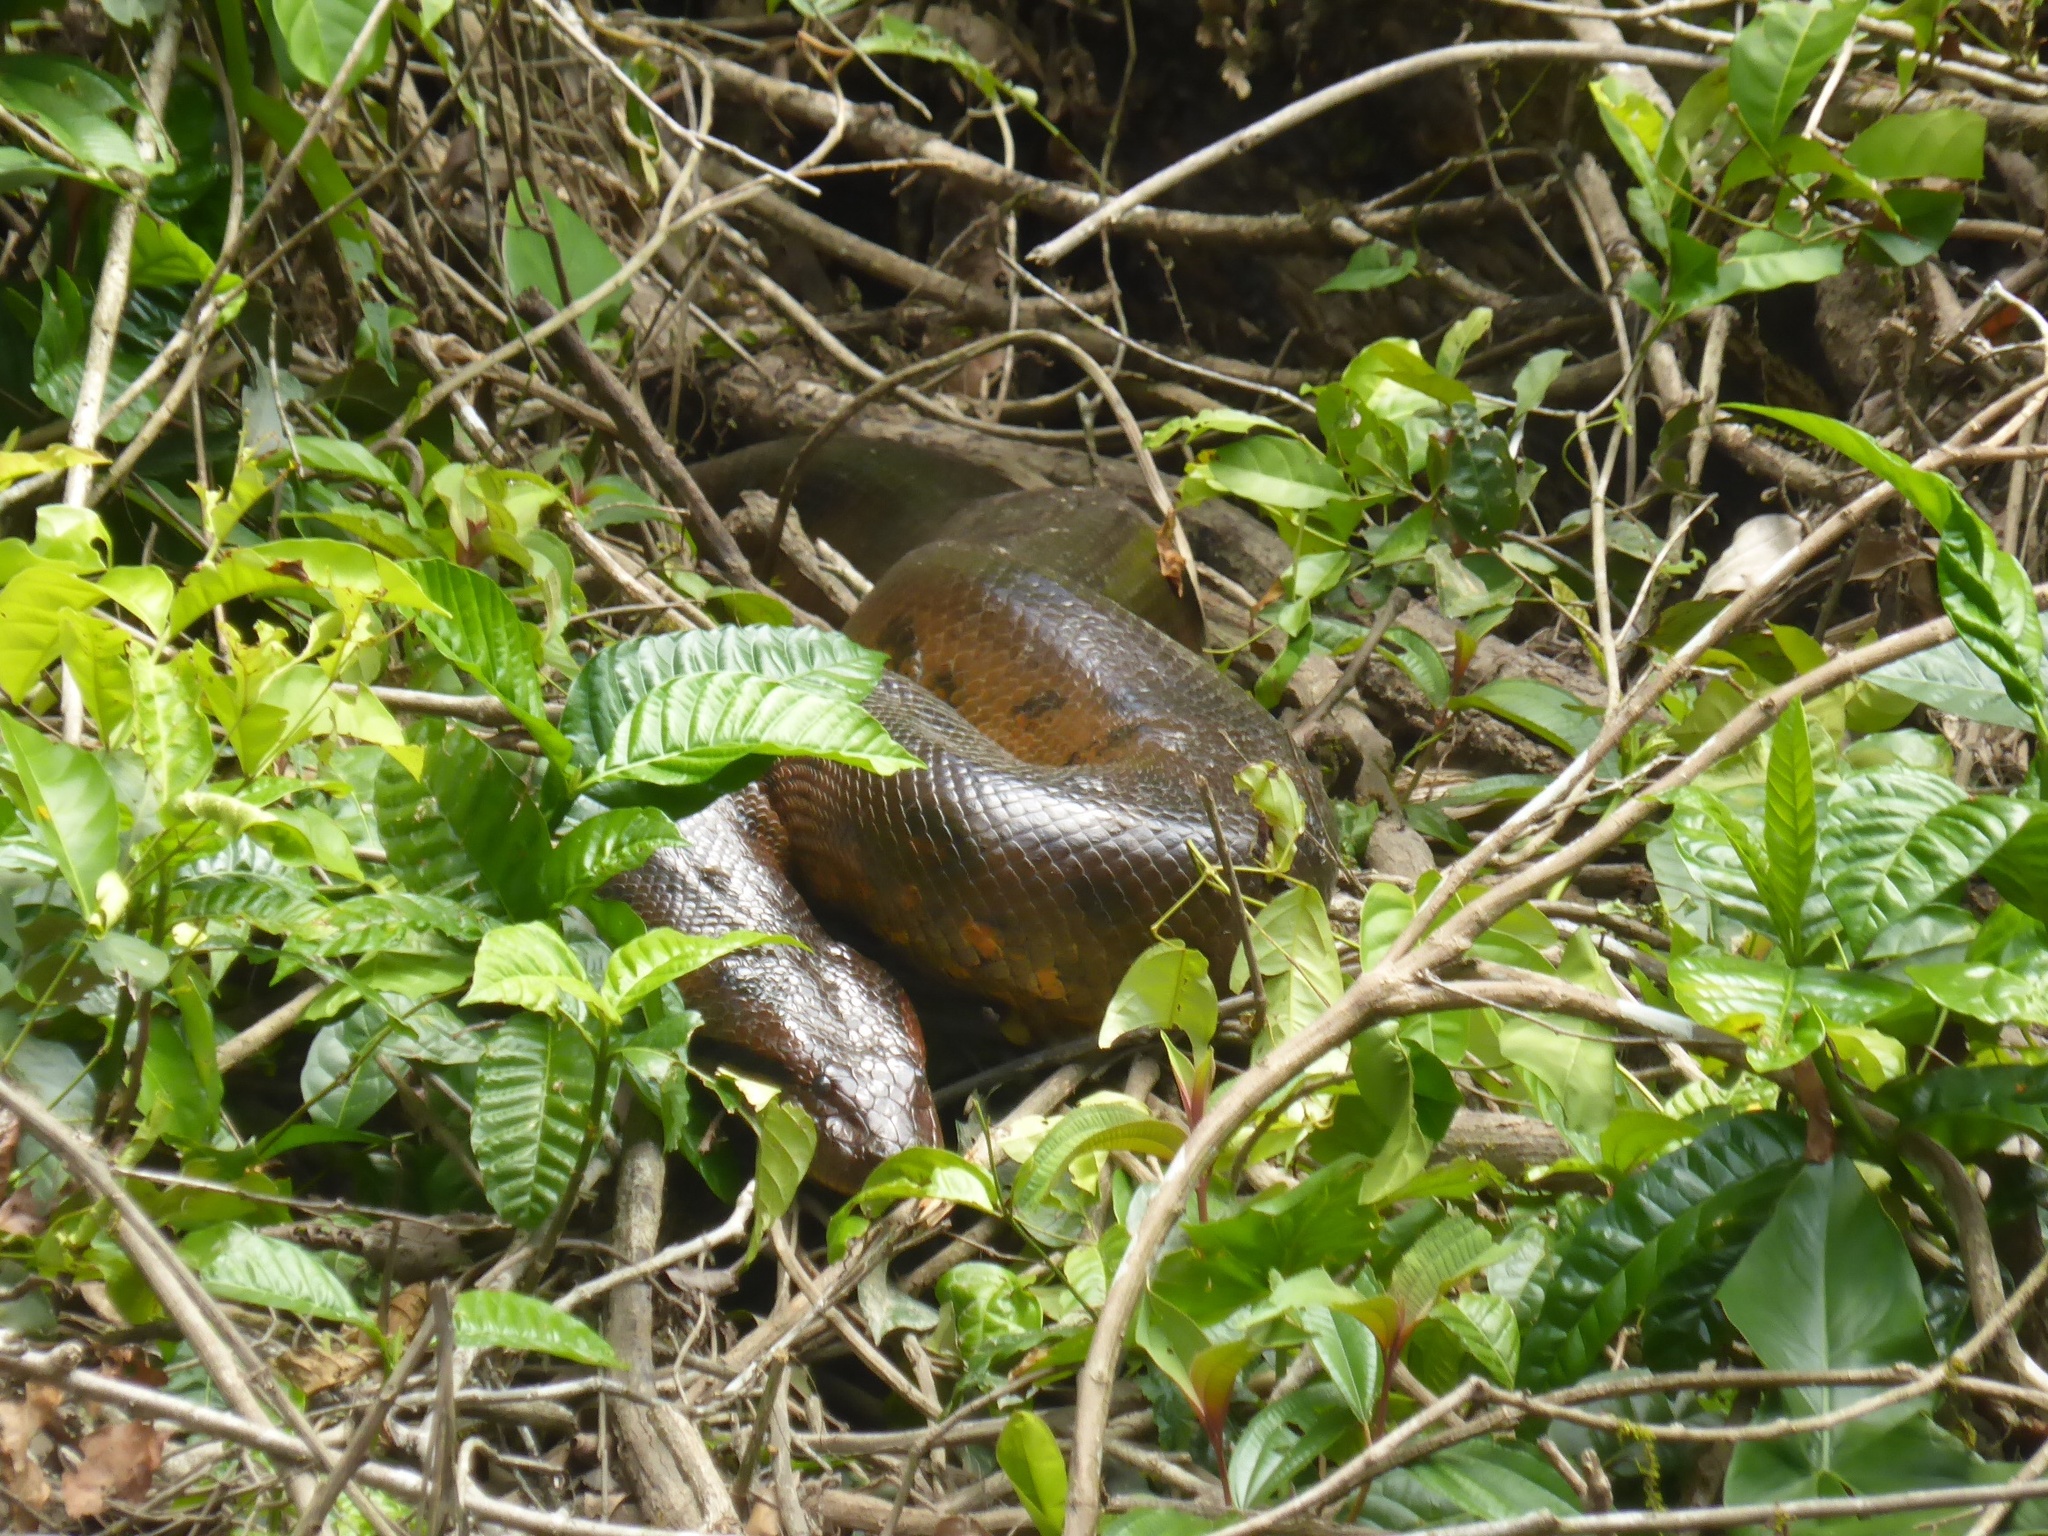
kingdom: Animalia
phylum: Chordata
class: Squamata
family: Boidae
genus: Eunectes
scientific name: Eunectes murinus
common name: Anaconda
